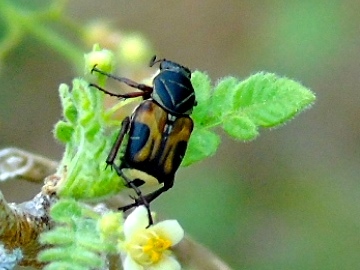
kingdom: Animalia
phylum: Arthropoda
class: Insecta
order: Coleoptera
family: Scarabaeidae
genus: Trigonopeltastes
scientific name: Trigonopeltastes
